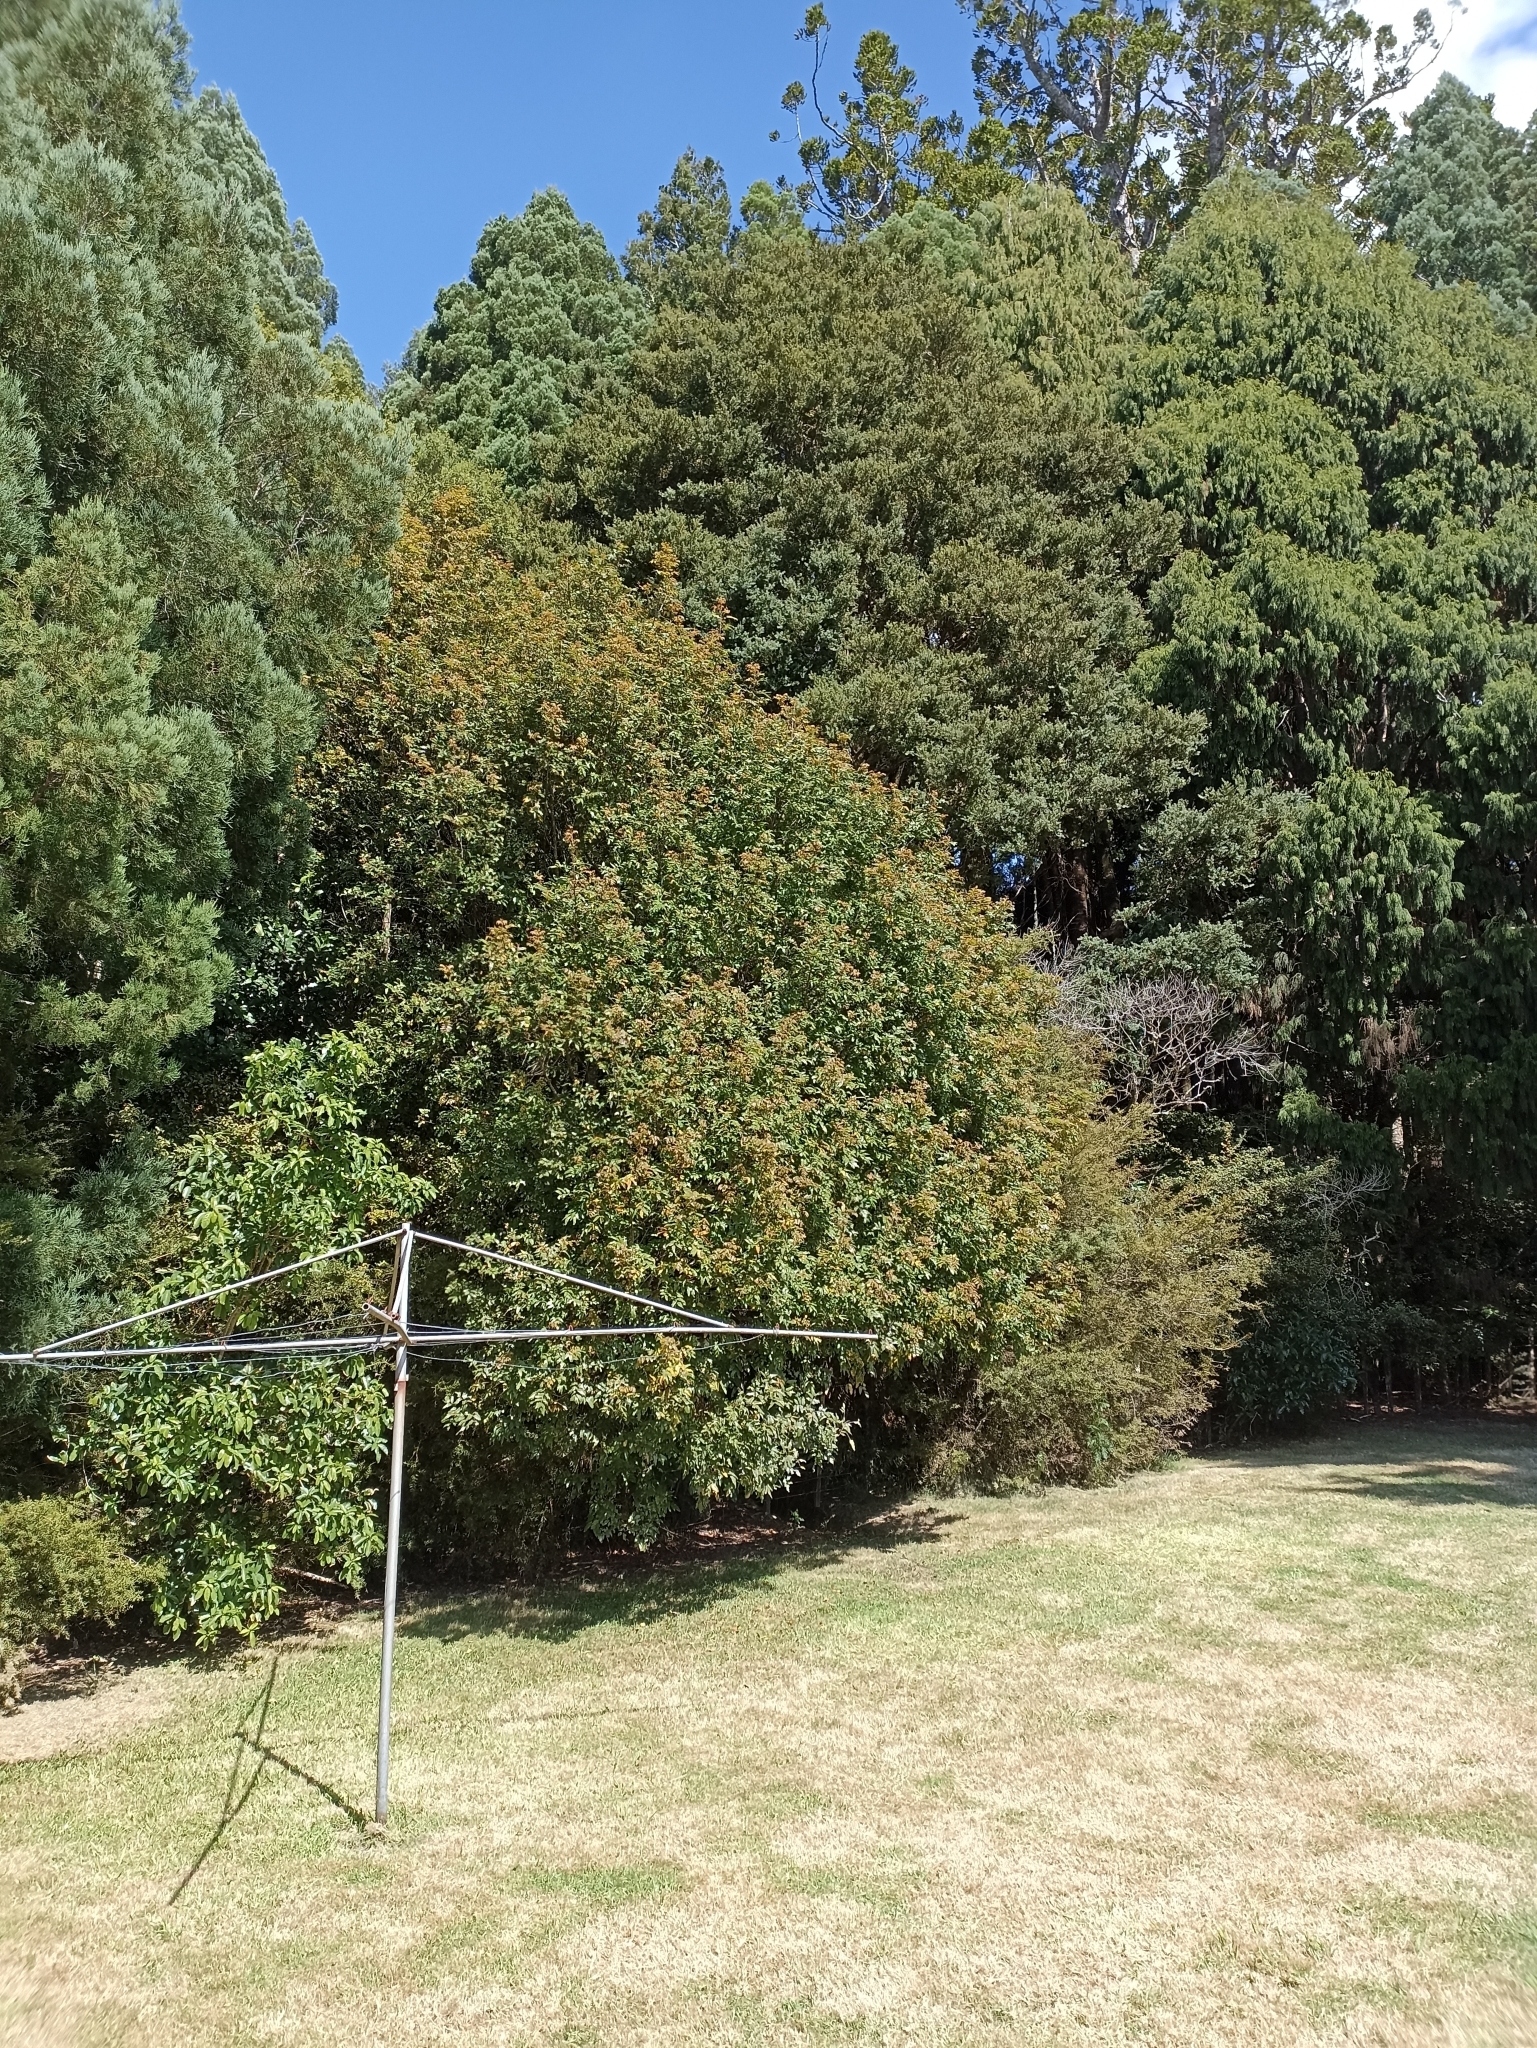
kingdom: Plantae
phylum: Tracheophyta
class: Magnoliopsida
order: Sapindales
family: Sapindaceae
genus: Alectryon
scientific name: Alectryon excelsus
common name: Three kings titoki
